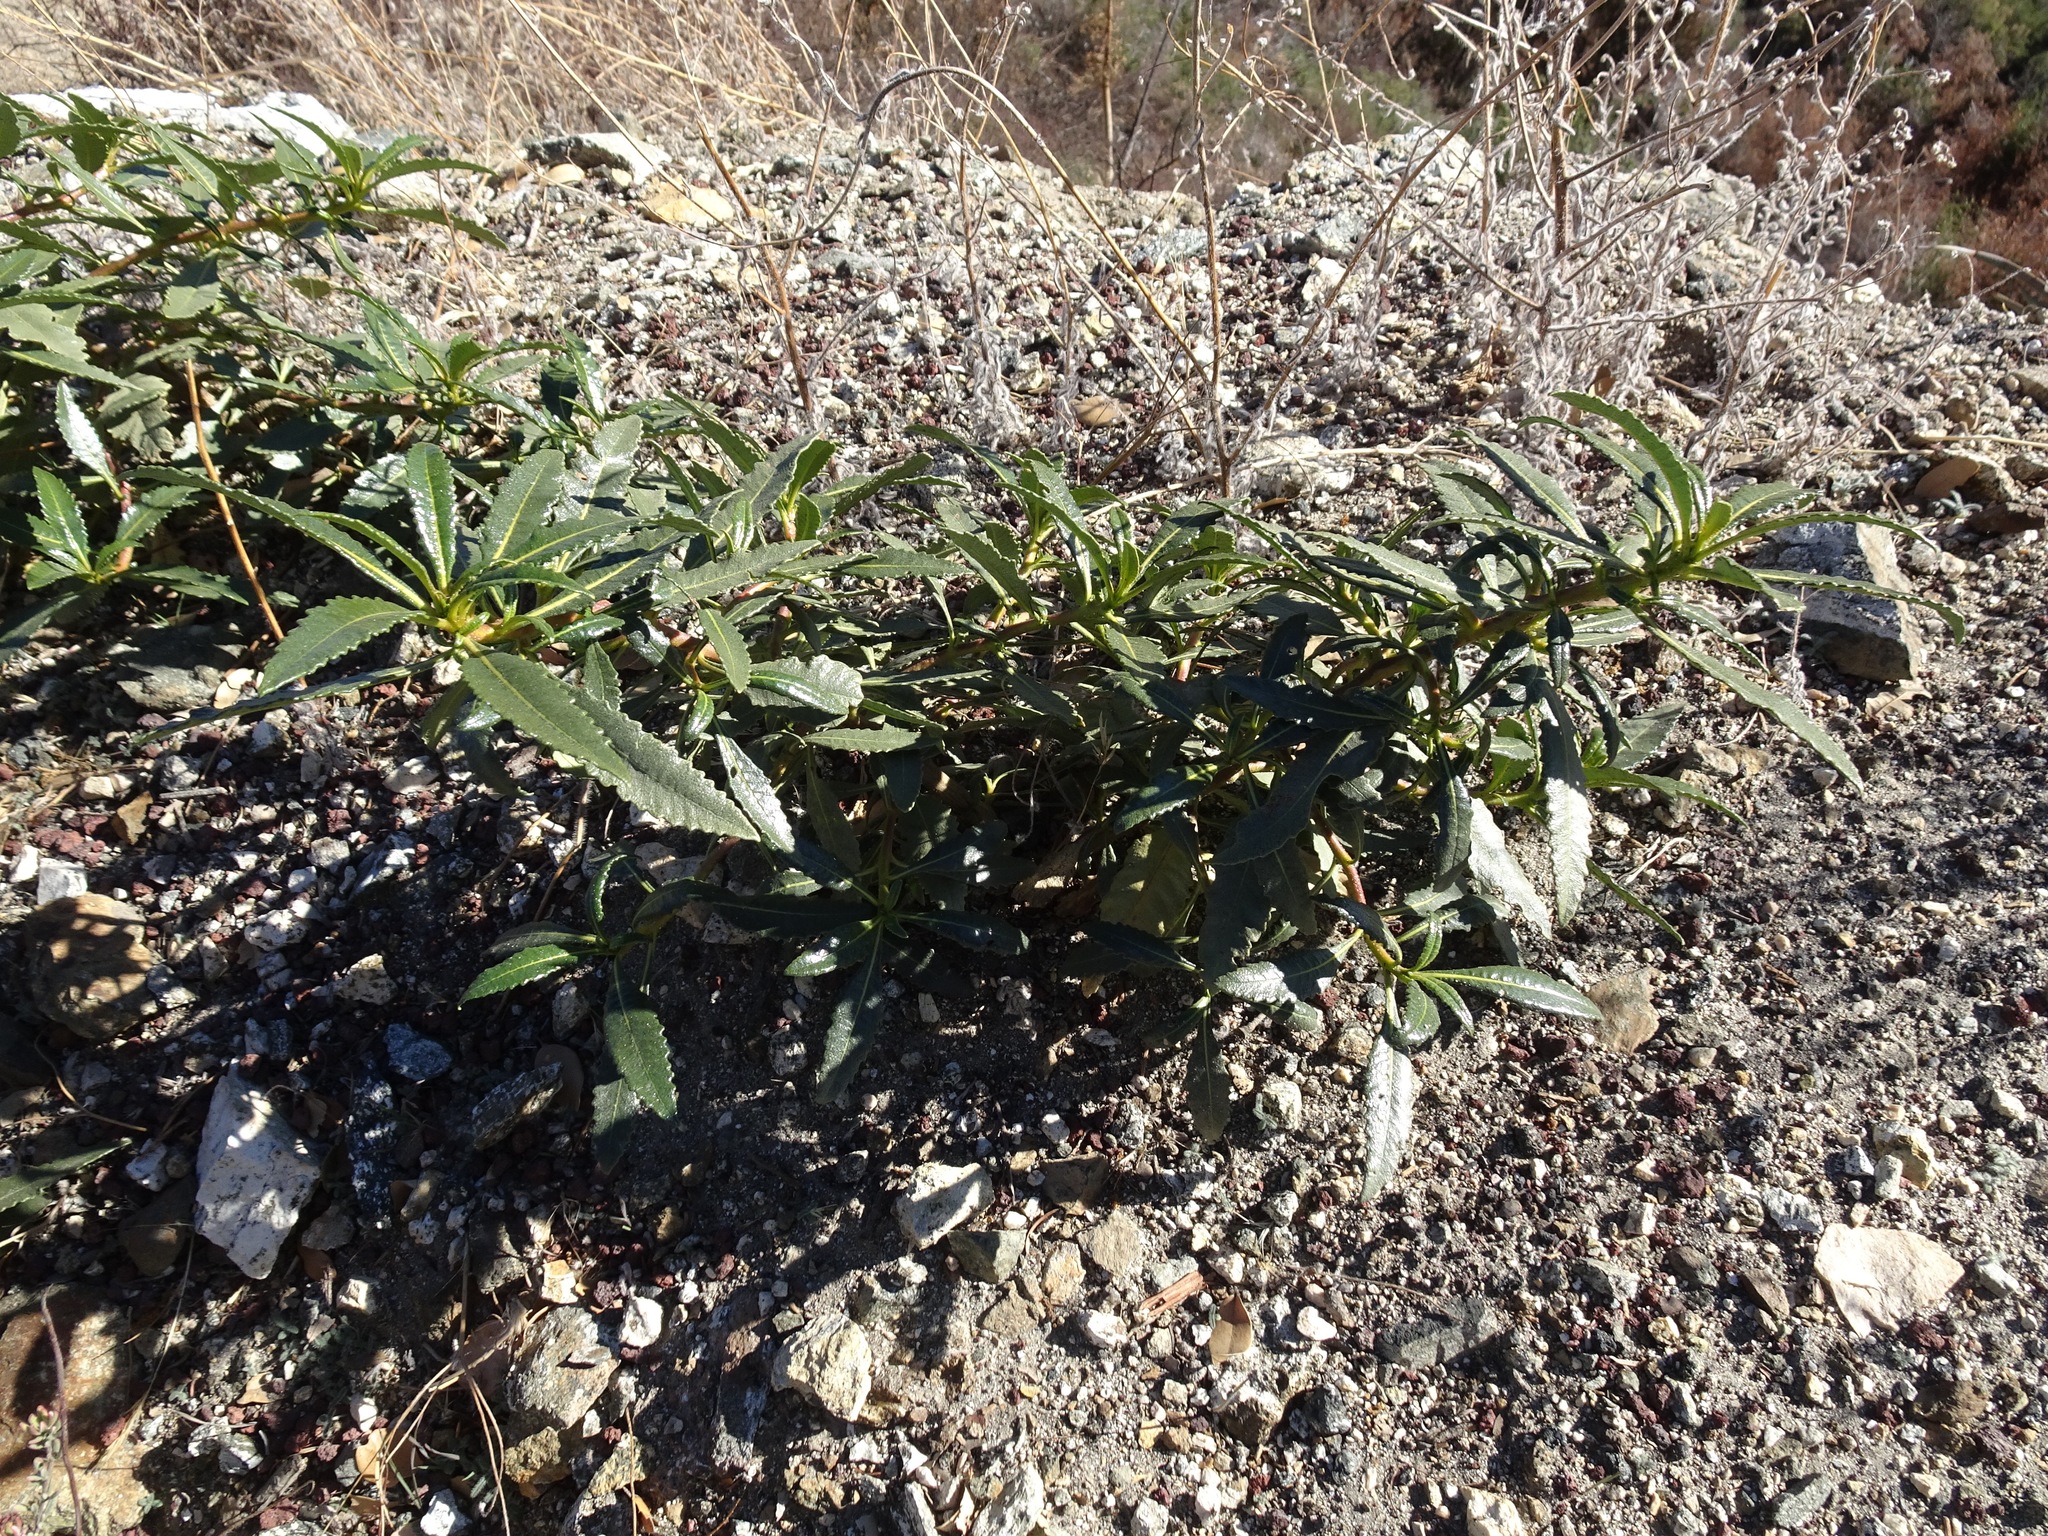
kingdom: Plantae
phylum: Tracheophyta
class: Magnoliopsida
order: Boraginales
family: Namaceae
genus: Eriodictyon
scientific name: Eriodictyon trichocalyx
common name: Hairy yerba-santa
